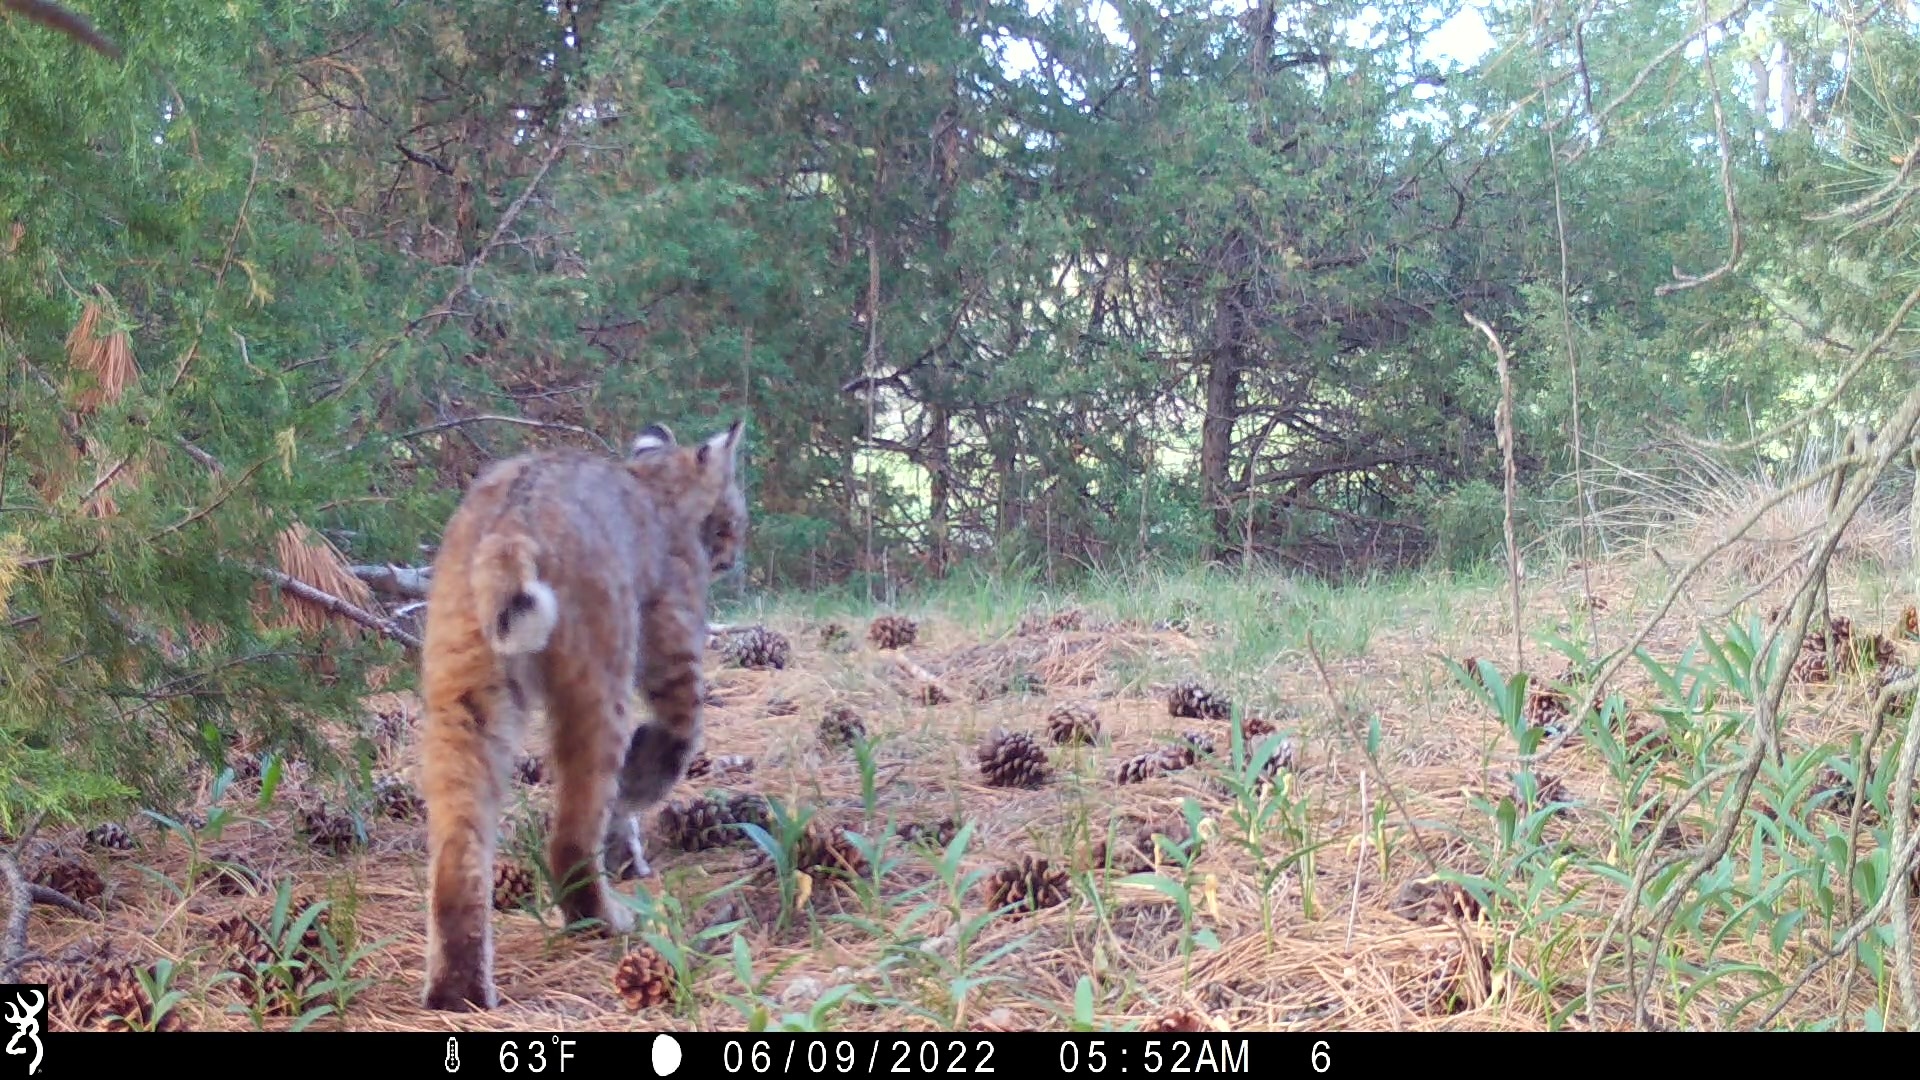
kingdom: Animalia
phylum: Chordata
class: Mammalia
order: Carnivora
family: Felidae
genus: Lynx
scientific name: Lynx rufus
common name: Bobcat
